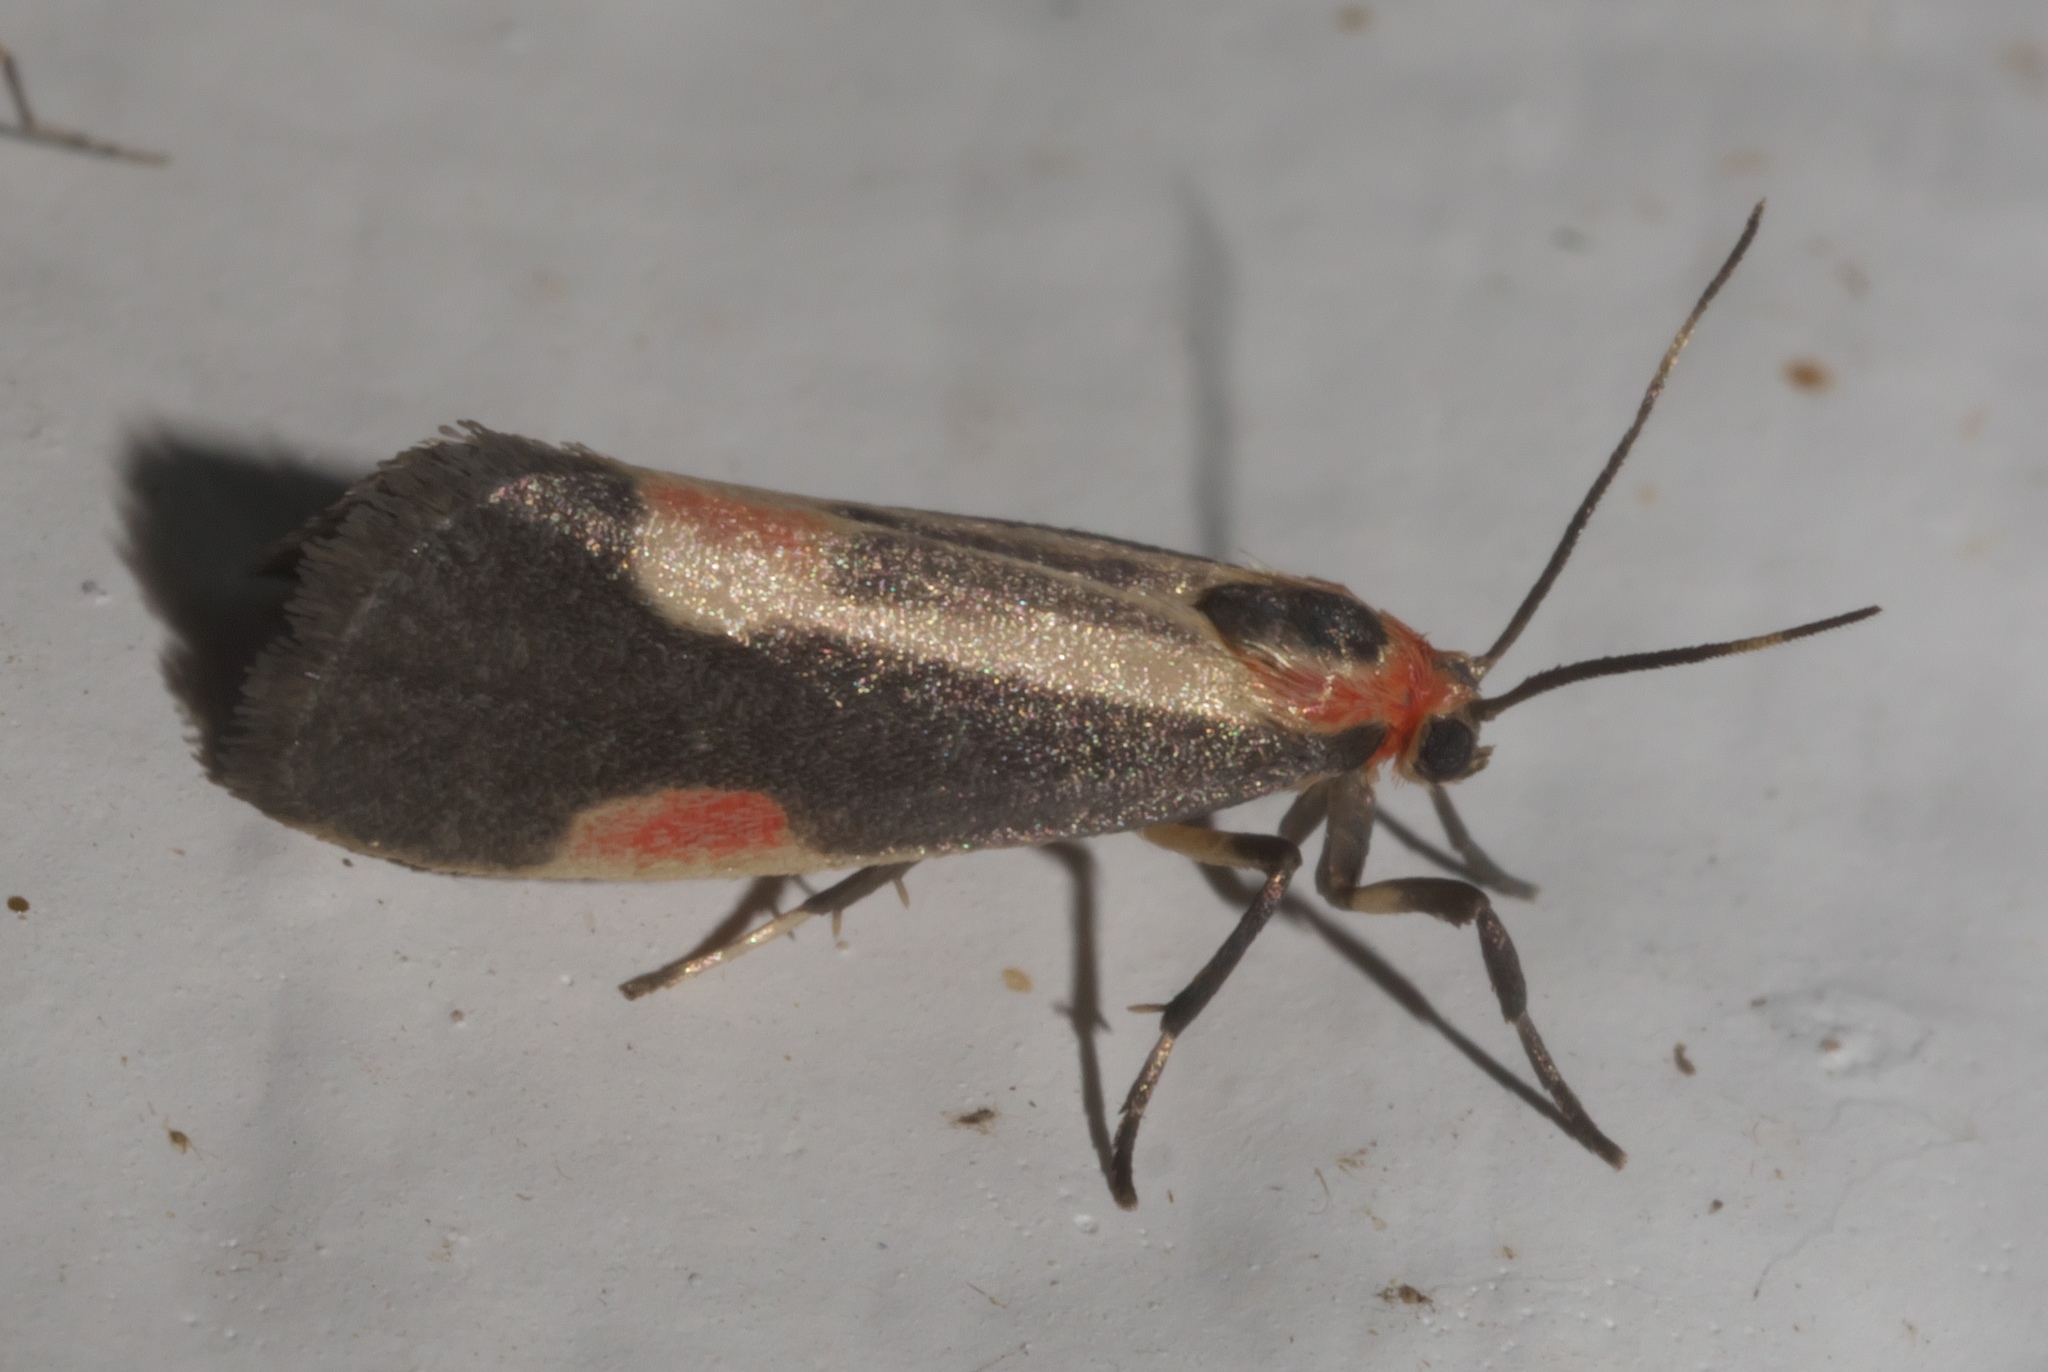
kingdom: Animalia
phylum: Arthropoda
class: Insecta
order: Lepidoptera
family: Erebidae
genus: Cisthene
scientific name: Cisthene packardii
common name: Packard's lichen moth
